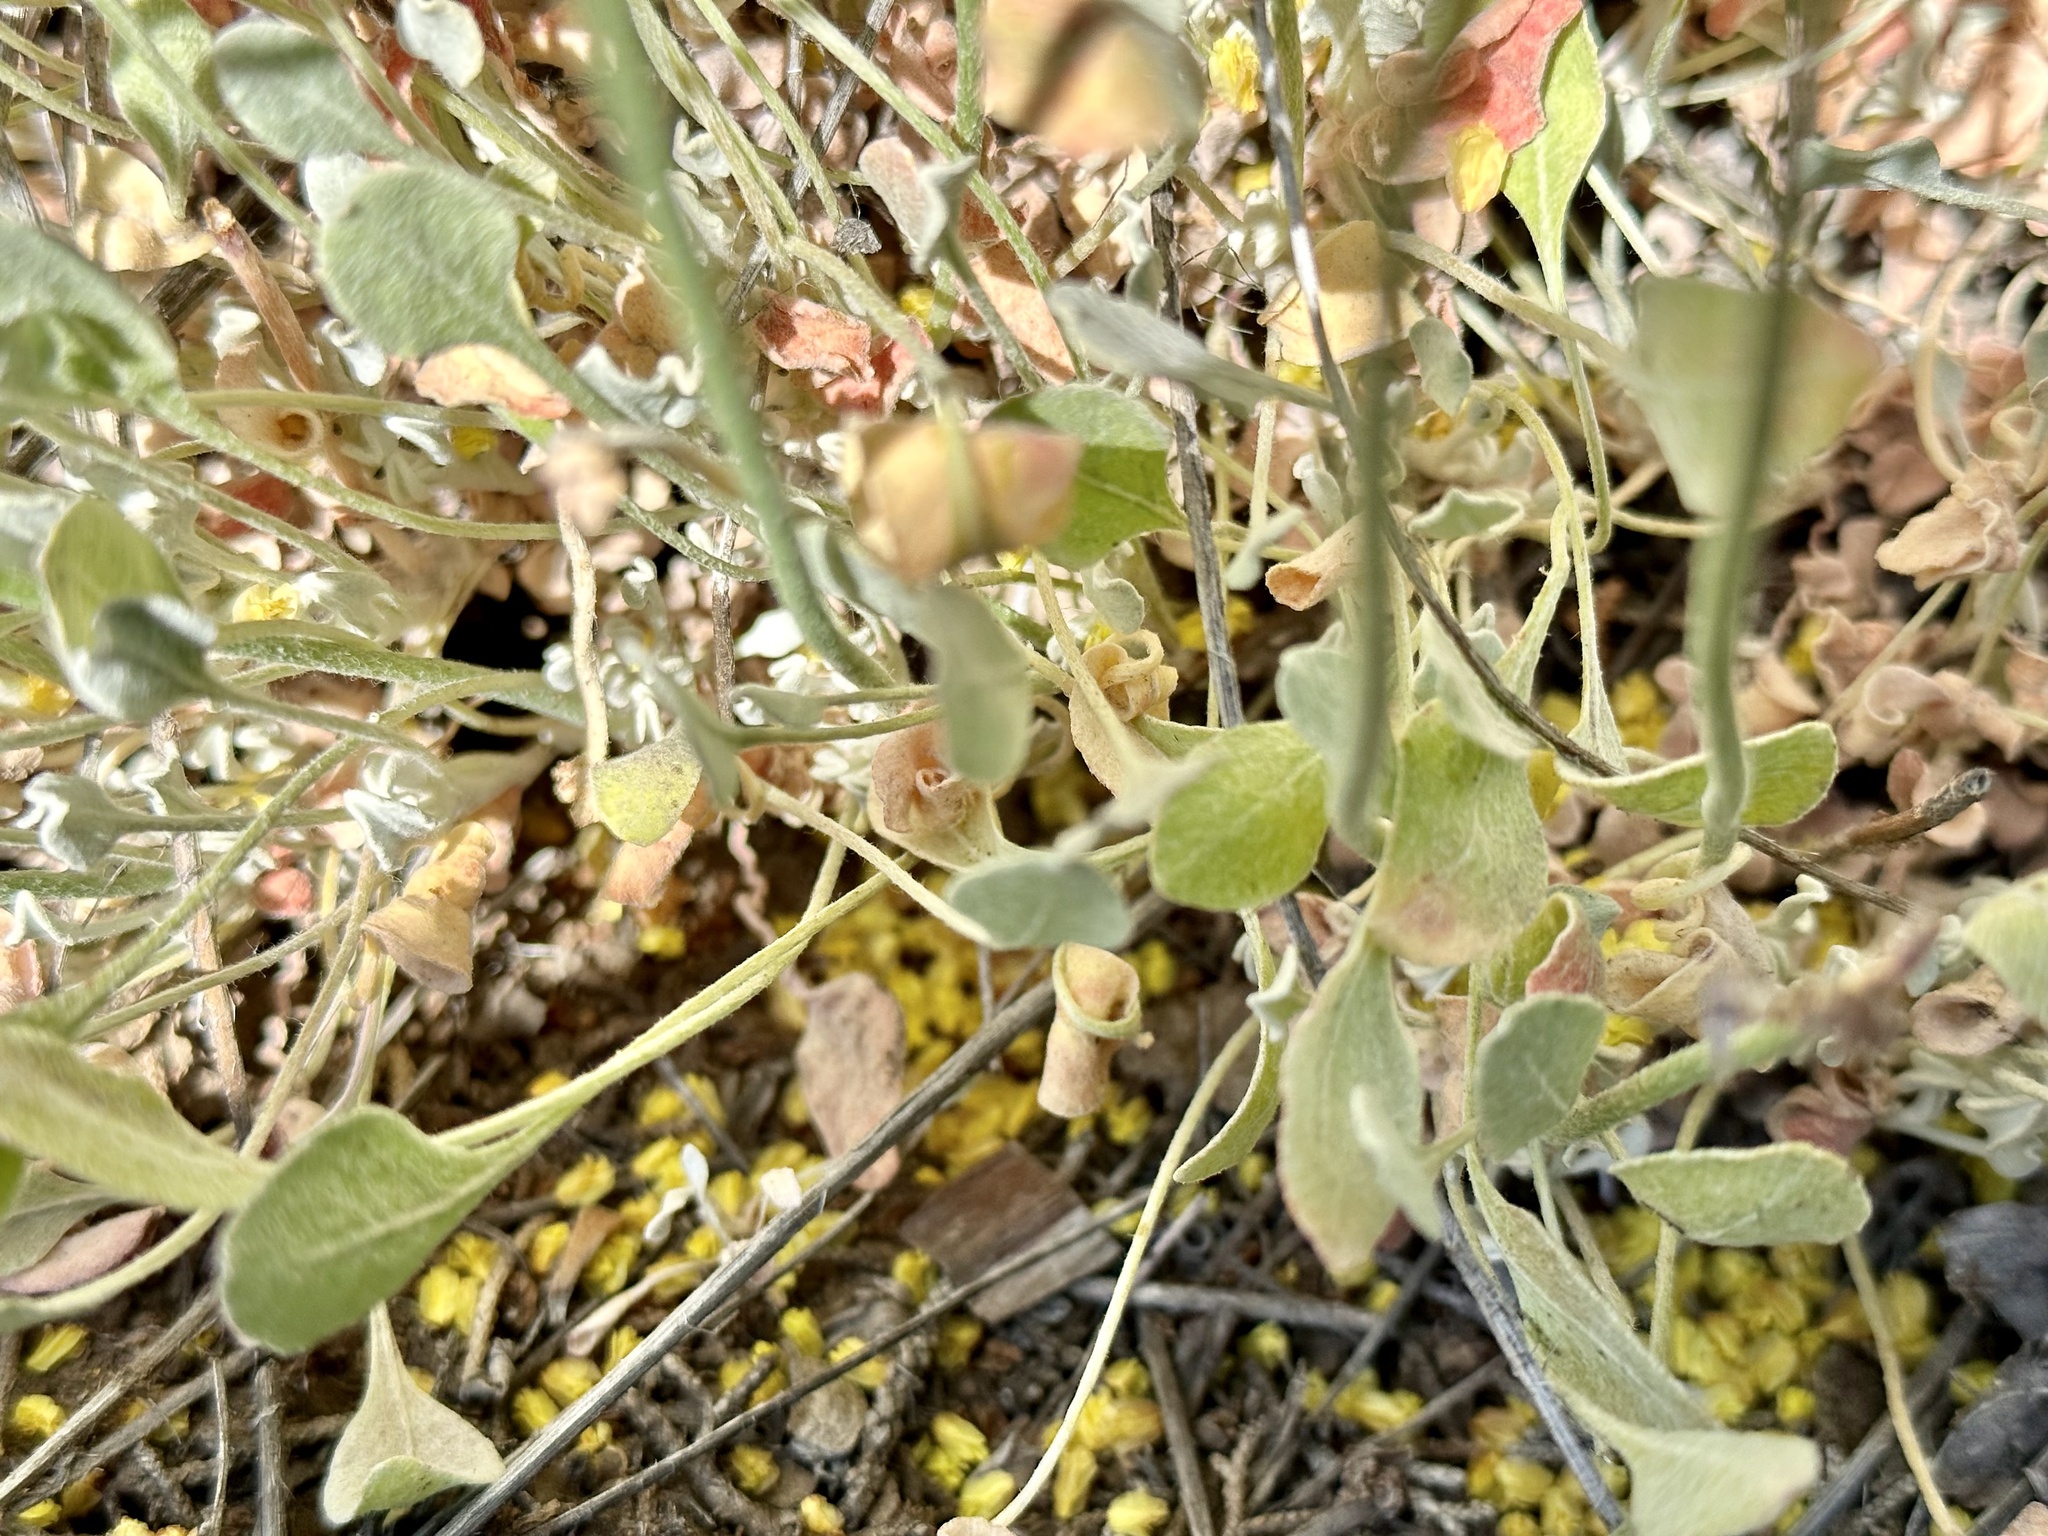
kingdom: Plantae
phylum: Tracheophyta
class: Magnoliopsida
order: Caryophyllales
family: Polygonaceae
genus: Eriogonum
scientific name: Eriogonum strictum
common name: Blue mountain buckwheat
